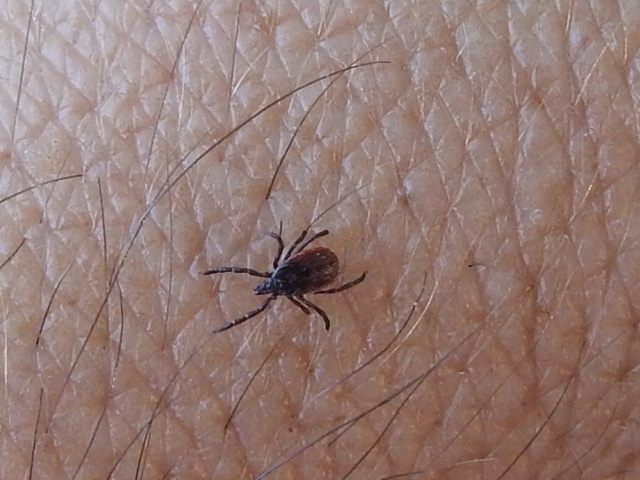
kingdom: Animalia
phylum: Arthropoda
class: Arachnida
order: Ixodida
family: Ixodidae
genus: Ixodes
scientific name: Ixodes pacificus
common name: California black-legged tick
